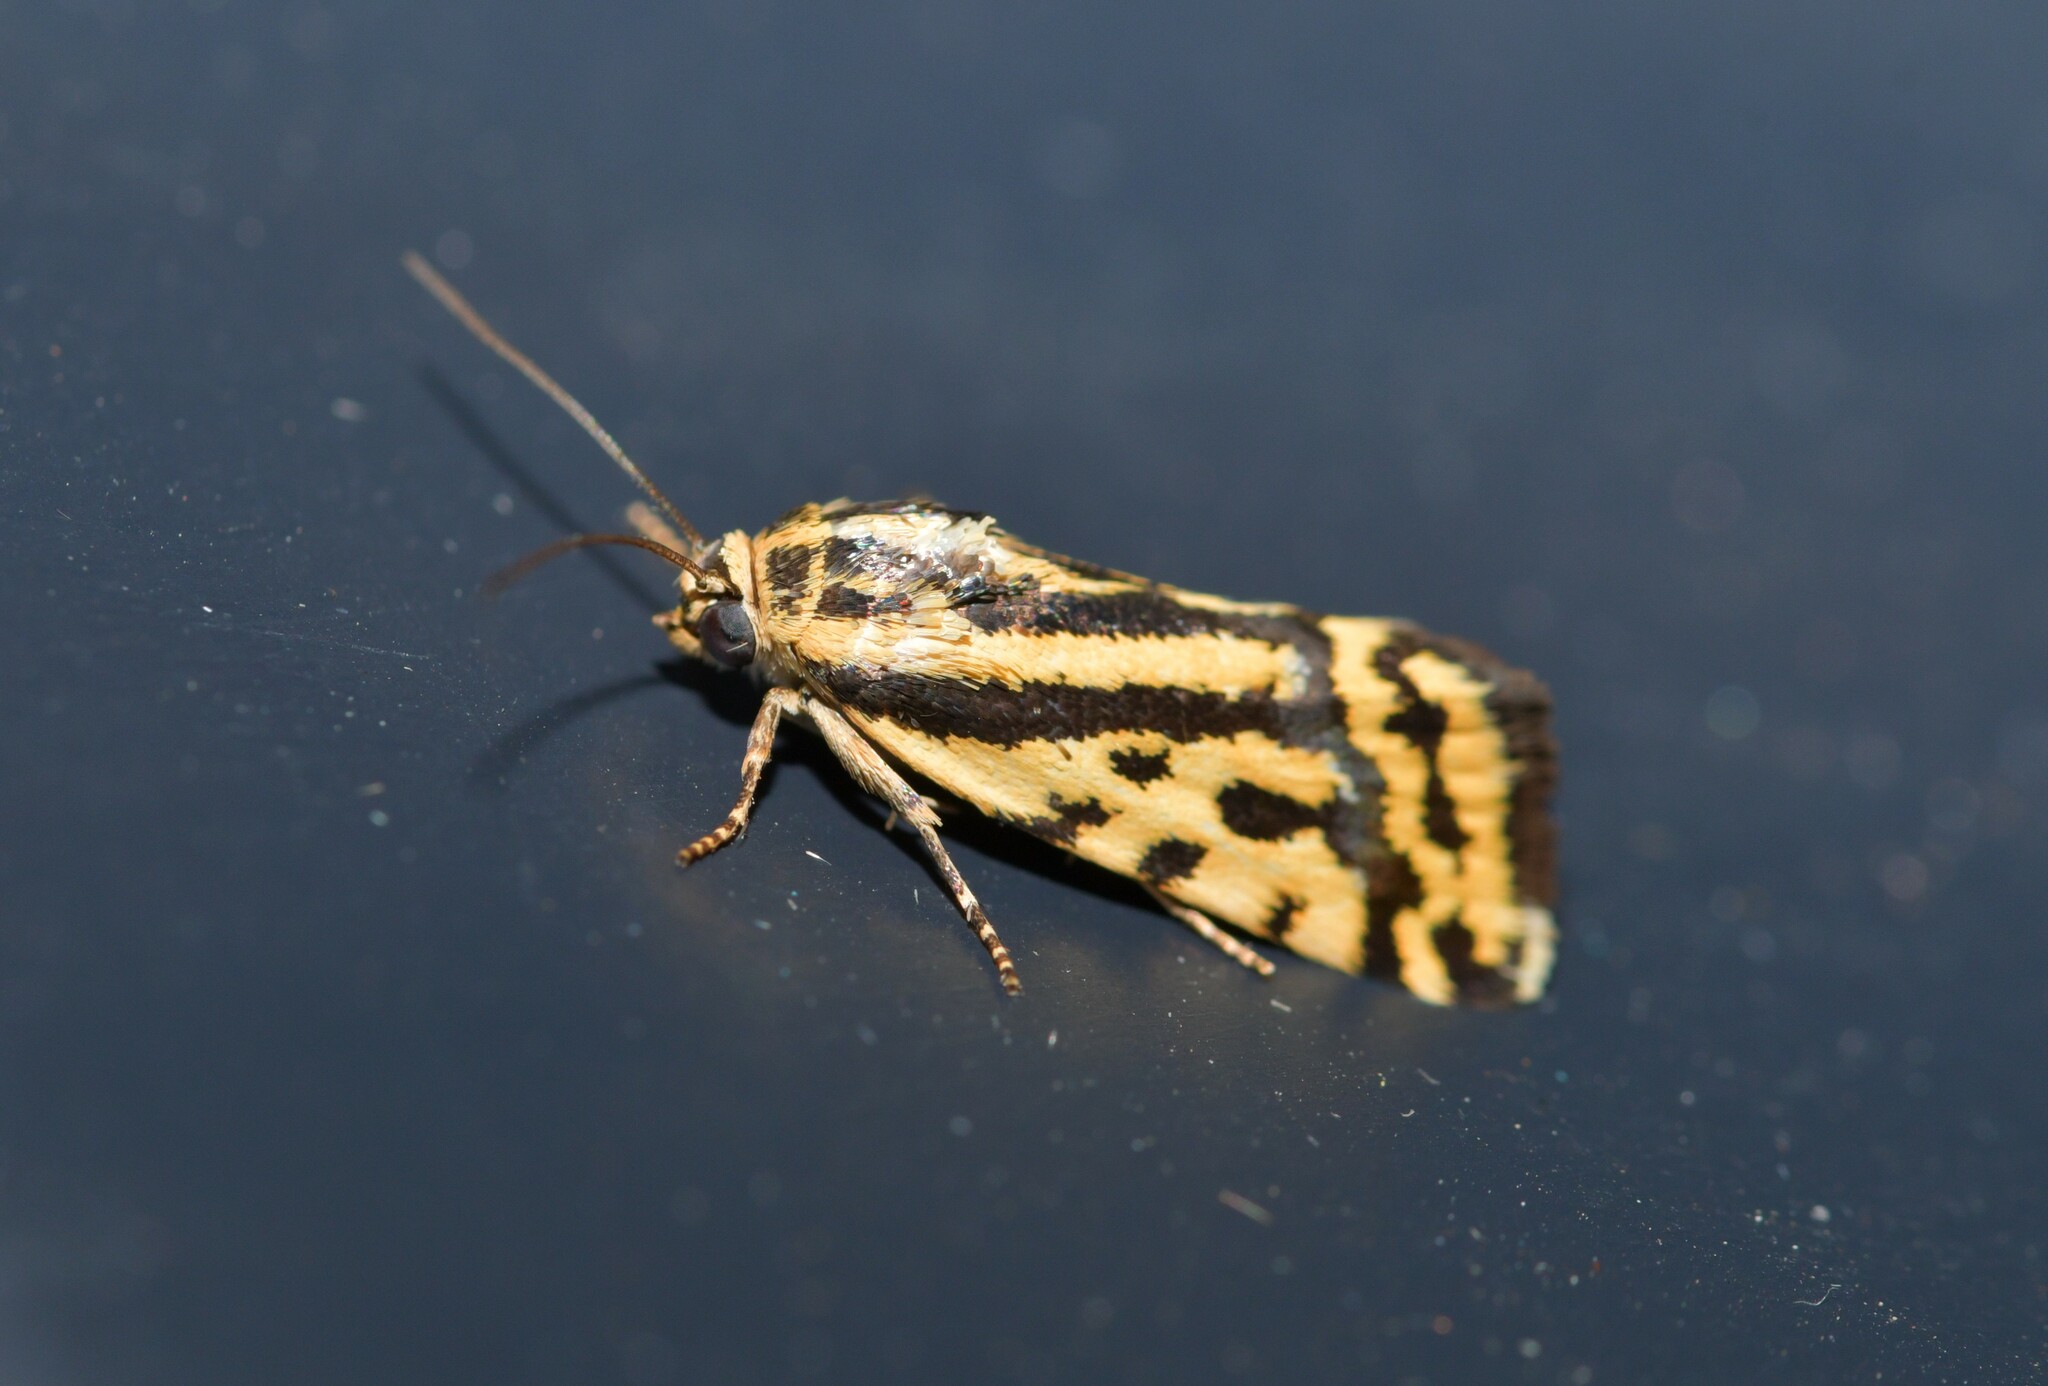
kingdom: Animalia
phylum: Arthropoda
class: Insecta
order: Lepidoptera
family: Noctuidae
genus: Acontia
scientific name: Acontia trabealis
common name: Spotted sulphur
